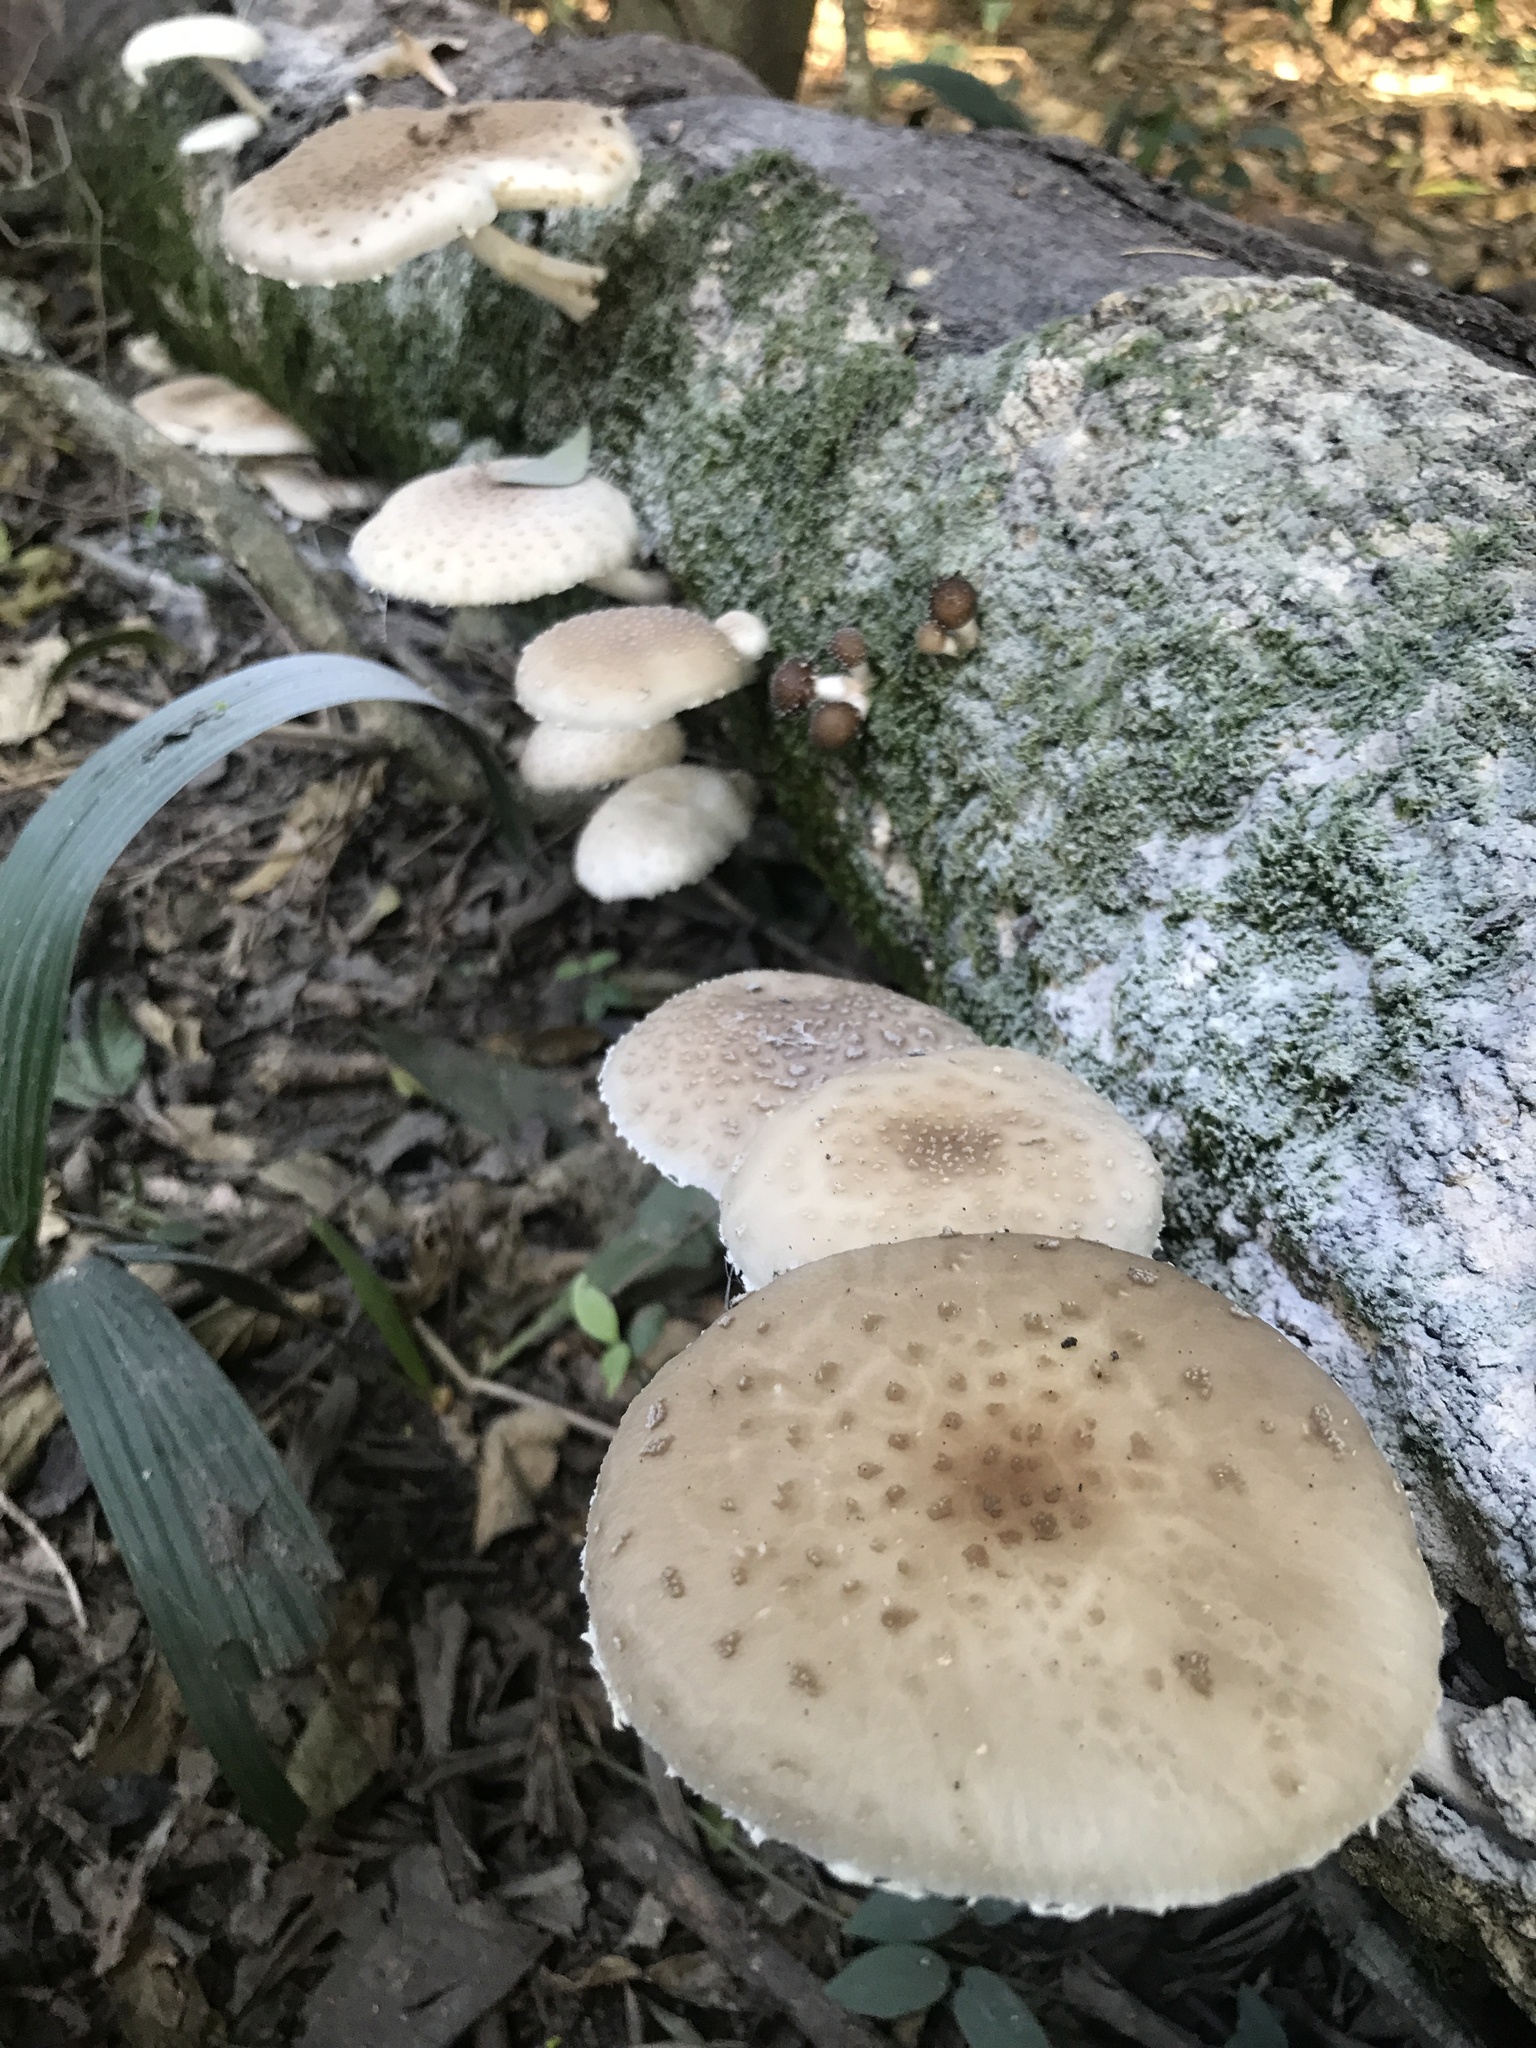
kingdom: Fungi
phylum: Basidiomycota
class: Agaricomycetes
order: Agaricales
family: Physalacriaceae
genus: Oudemansiella
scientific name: Oudemansiella canarii
